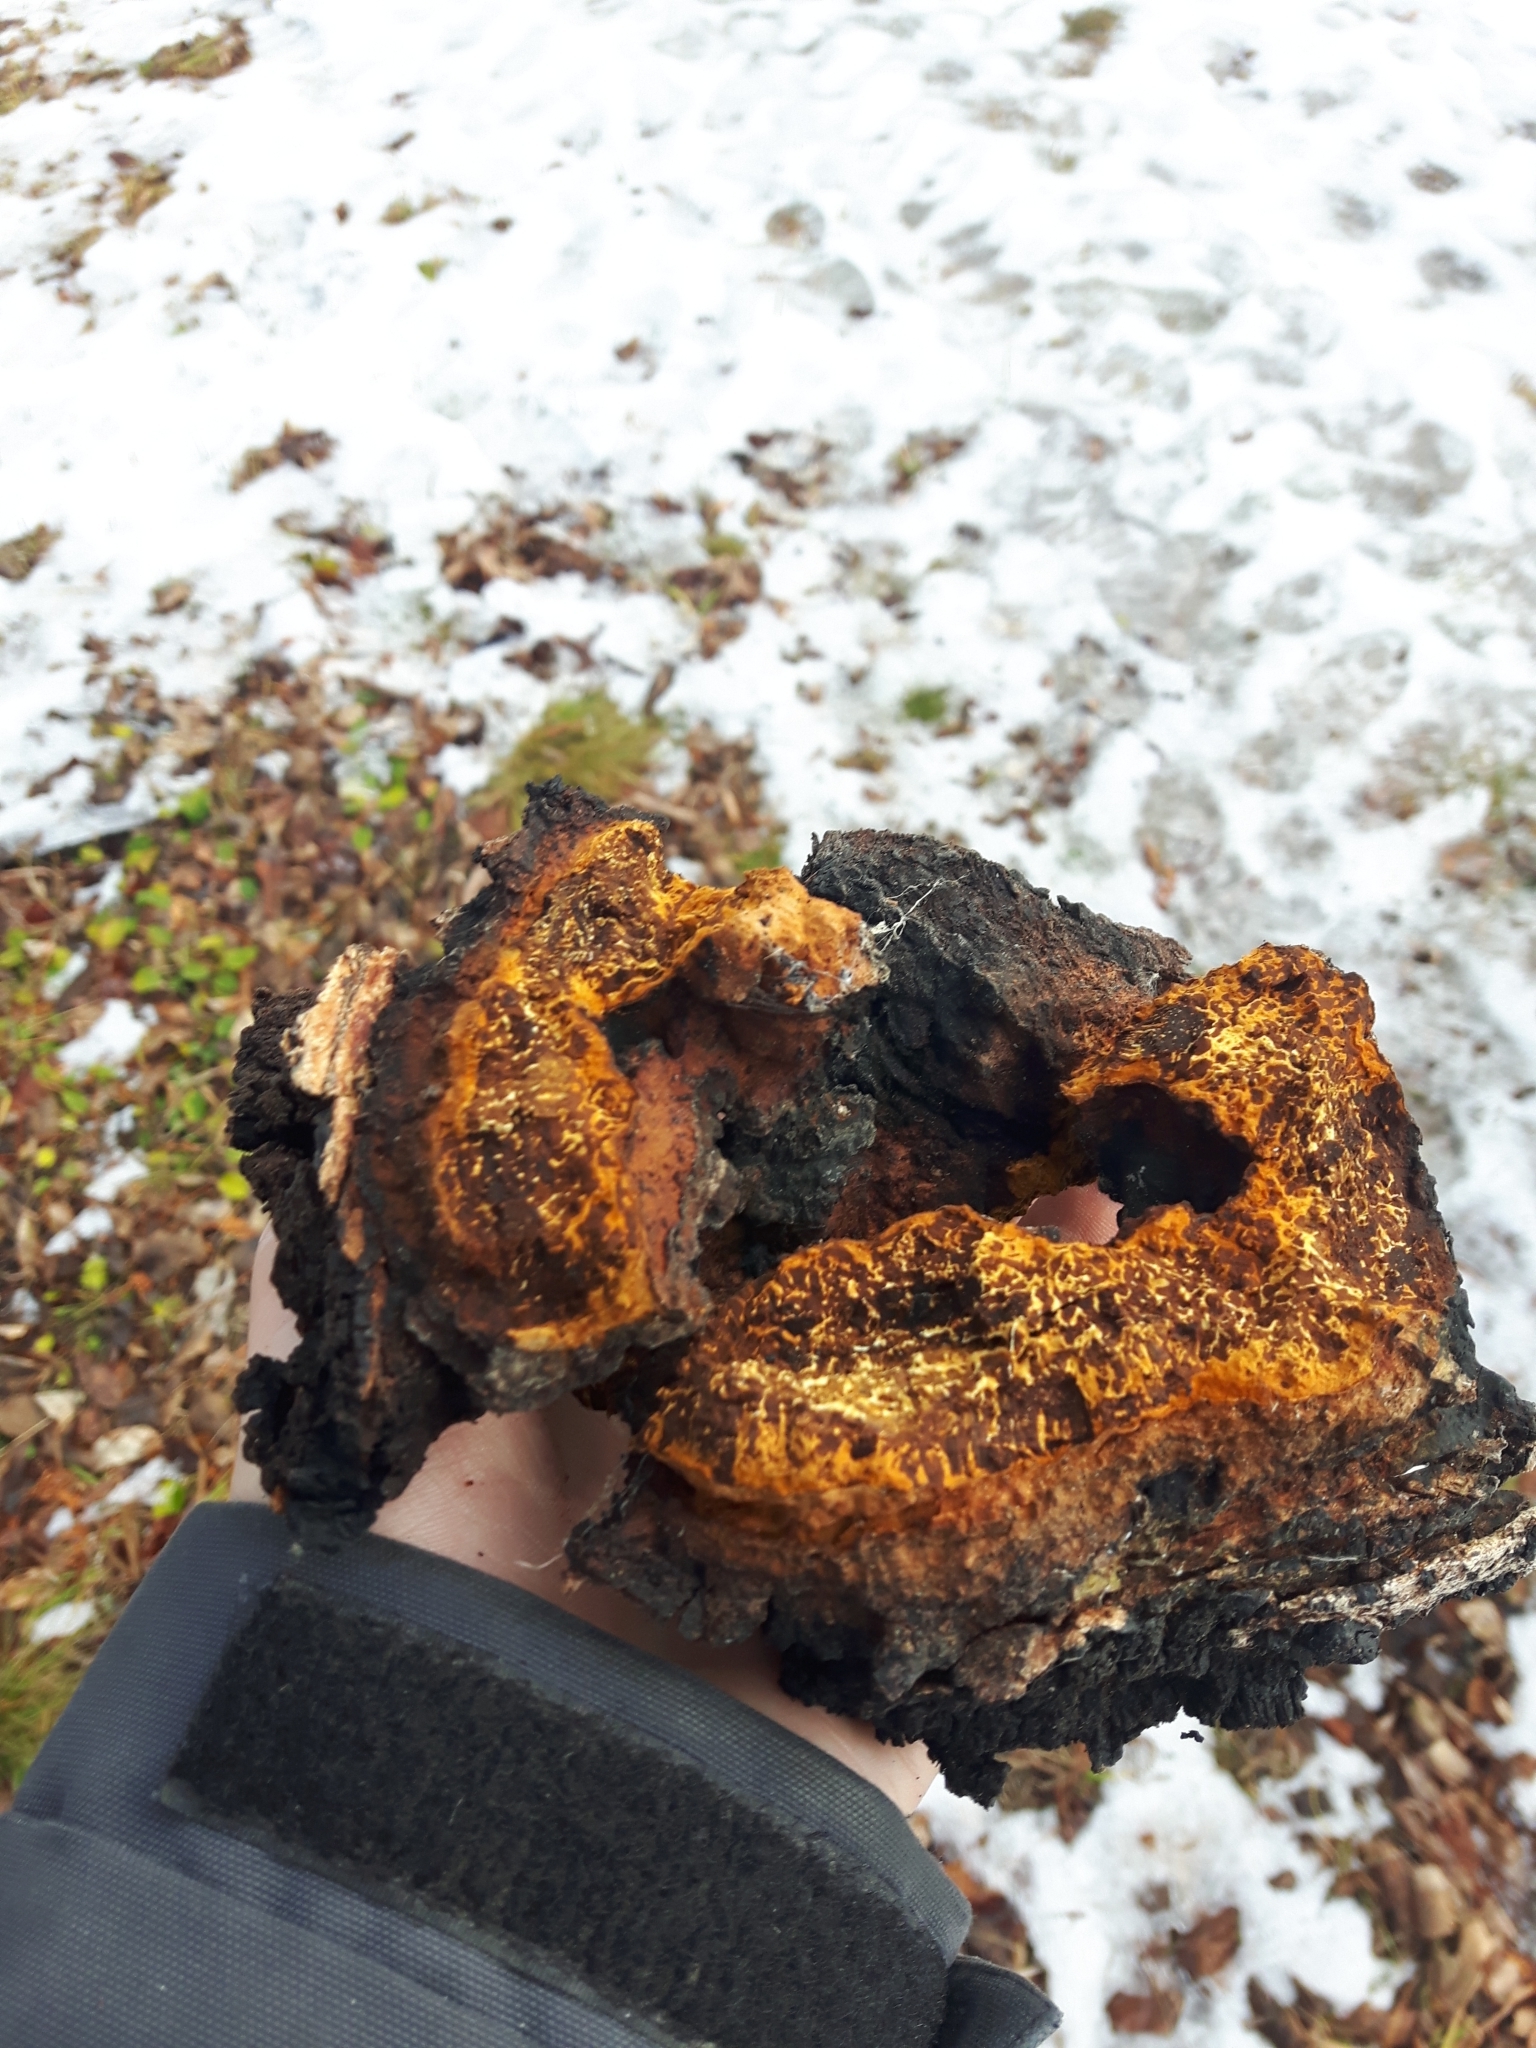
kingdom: Fungi
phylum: Basidiomycota
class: Agaricomycetes
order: Hymenochaetales
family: Hymenochaetaceae
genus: Inonotus
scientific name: Inonotus obliquus
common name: Chaga
